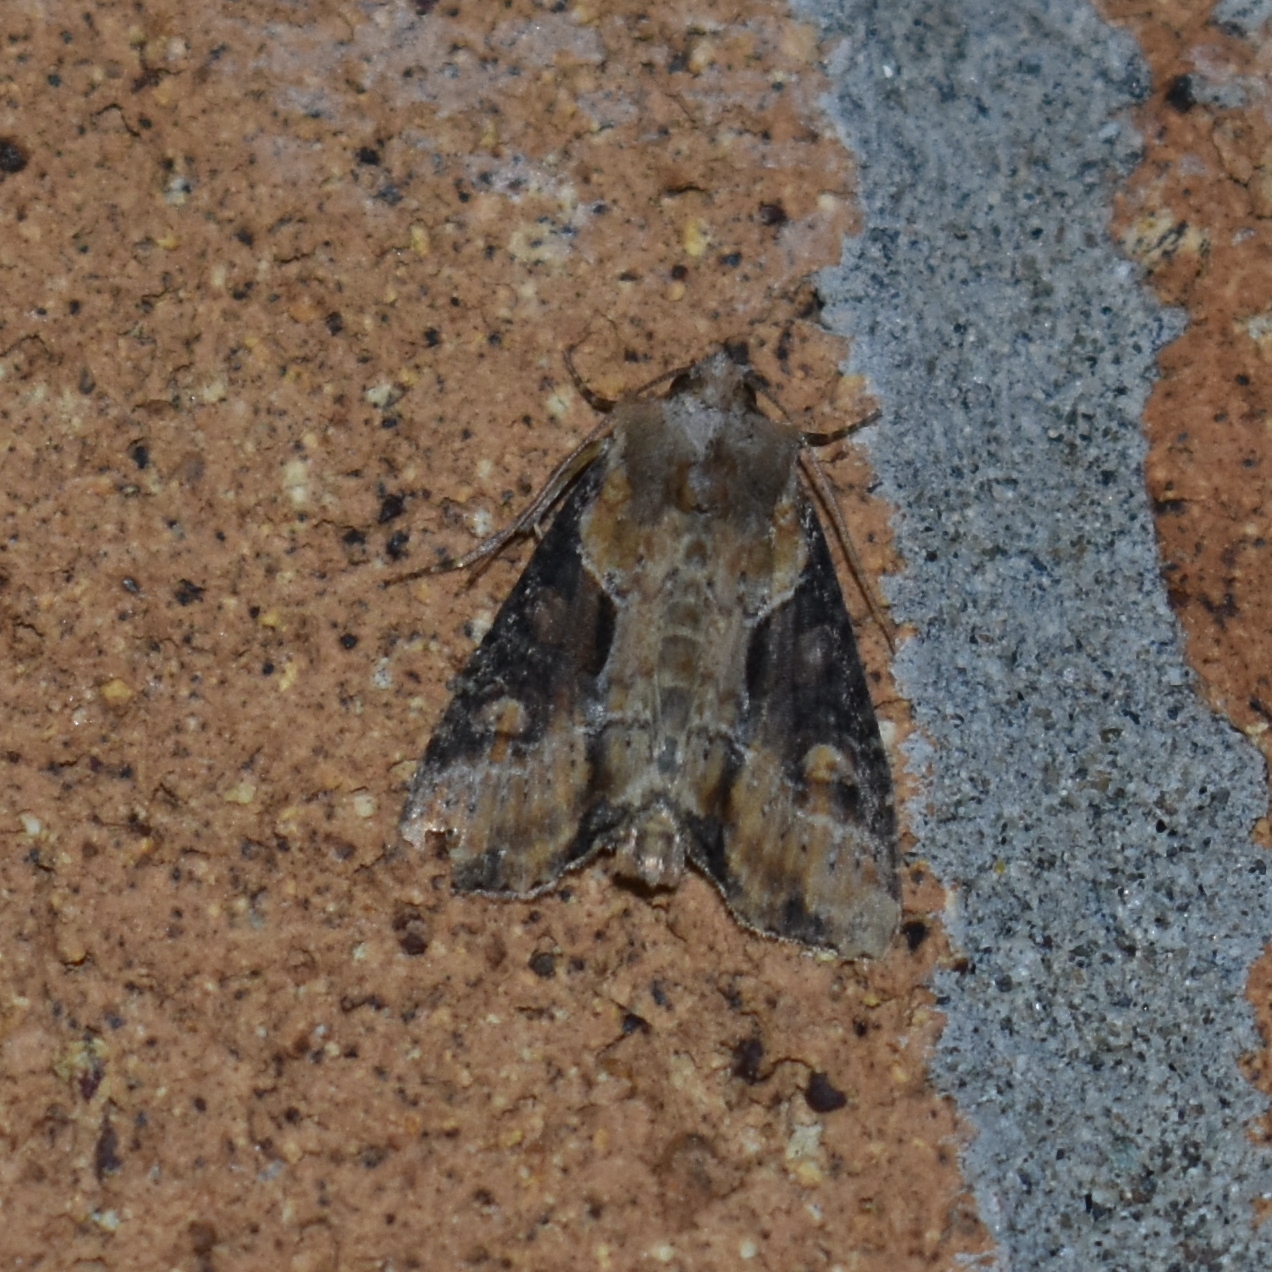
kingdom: Animalia
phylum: Arthropoda
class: Insecta
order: Lepidoptera
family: Noctuidae
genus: Lateroligia
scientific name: Lateroligia ophiogramma
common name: Double lobed
